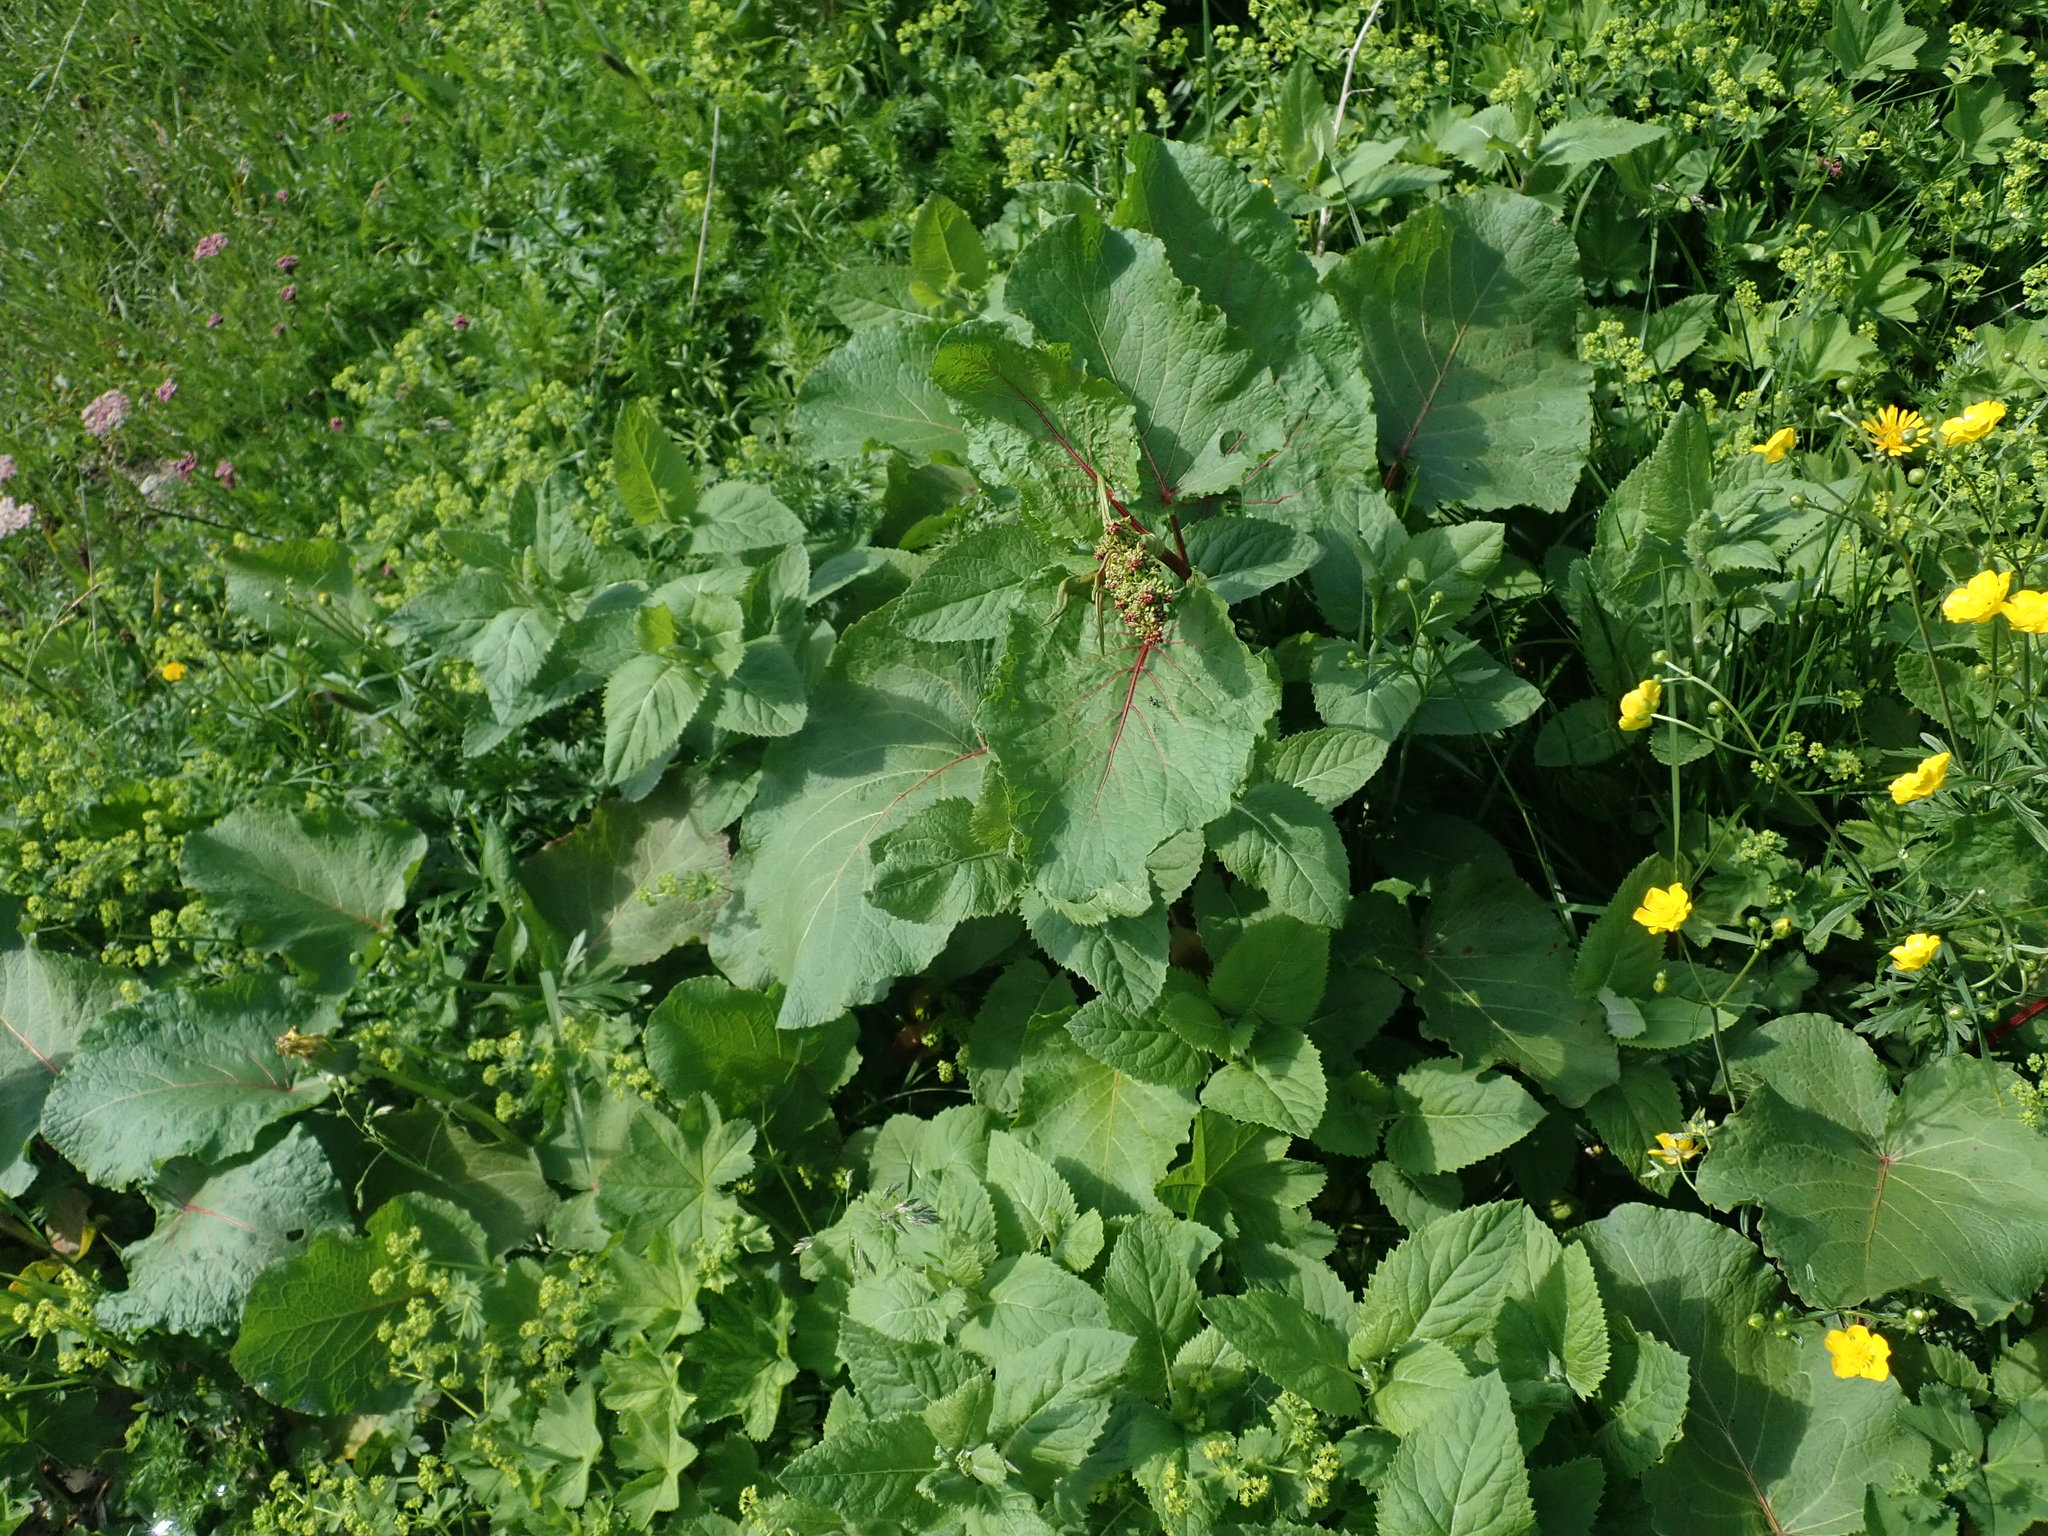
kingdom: Plantae
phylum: Tracheophyta
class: Magnoliopsida
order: Caryophyllales
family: Polygonaceae
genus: Rumex
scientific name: Rumex alpinus
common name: Alpine dock
